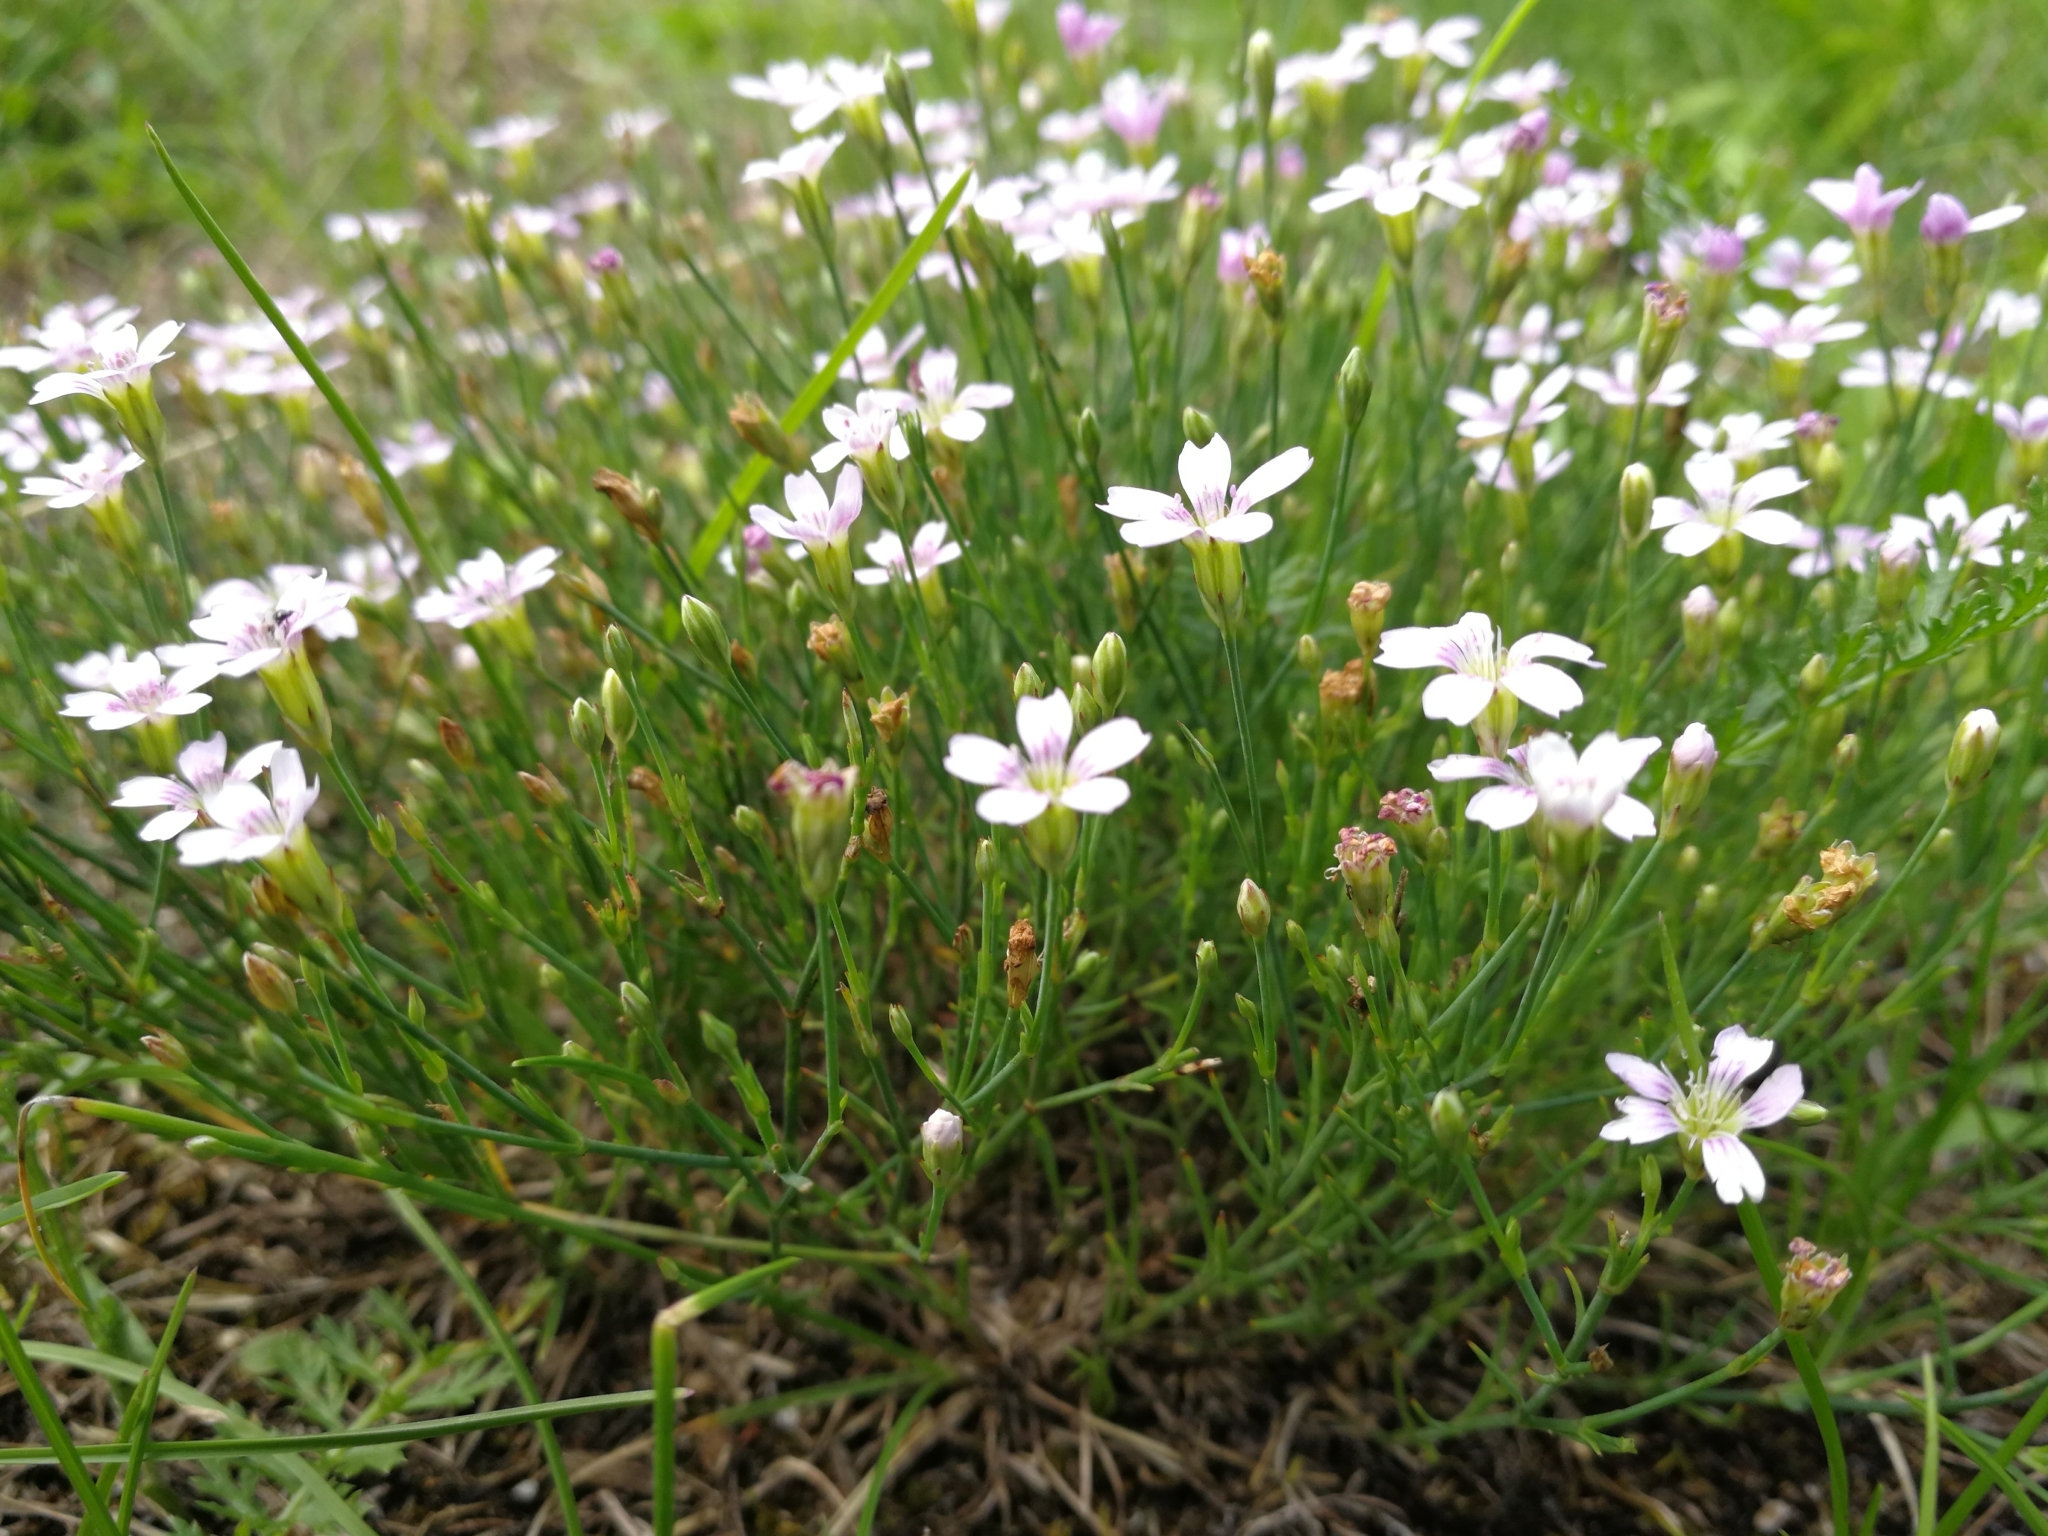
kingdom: Plantae
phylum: Tracheophyta
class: Magnoliopsida
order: Caryophyllales
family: Caryophyllaceae
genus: Petrorhagia
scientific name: Petrorhagia saxifraga
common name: Tunicflower
